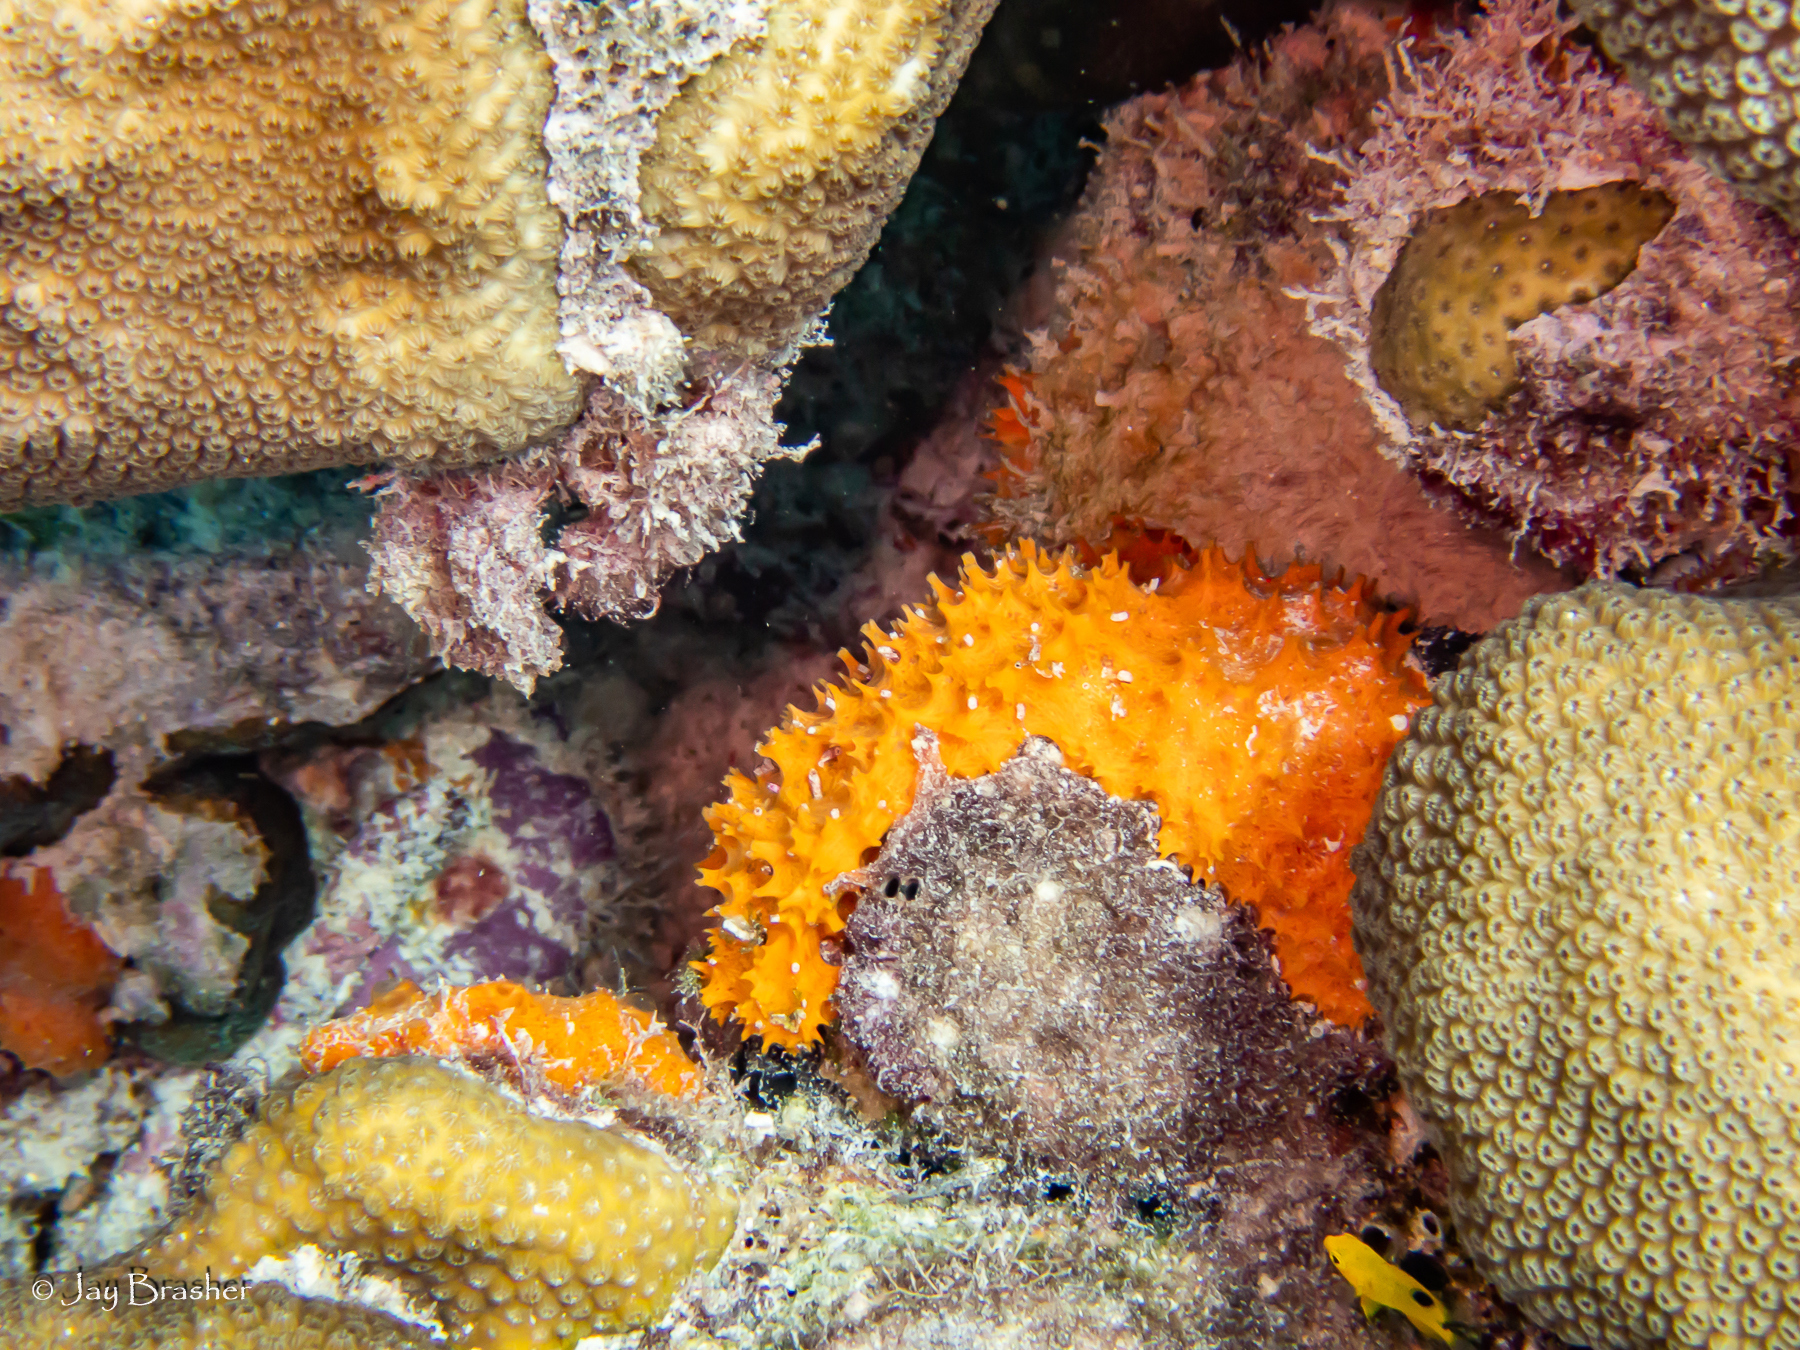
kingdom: Animalia
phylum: Porifera
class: Demospongiae
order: Scopalinida
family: Scopalinidae
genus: Scopalina
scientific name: Scopalina ruetzleri
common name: Orange lumpy encrusting sponge
